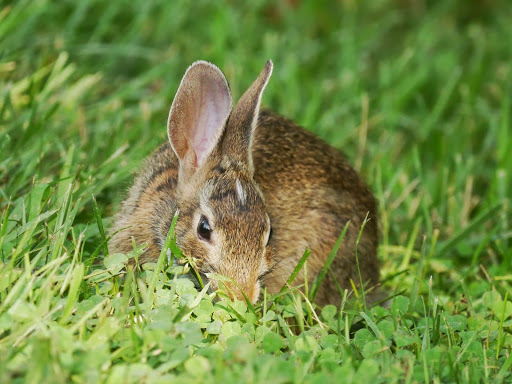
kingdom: Animalia
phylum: Chordata
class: Mammalia
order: Lagomorpha
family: Leporidae
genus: Sylvilagus
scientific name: Sylvilagus floridanus
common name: Eastern cottontail
